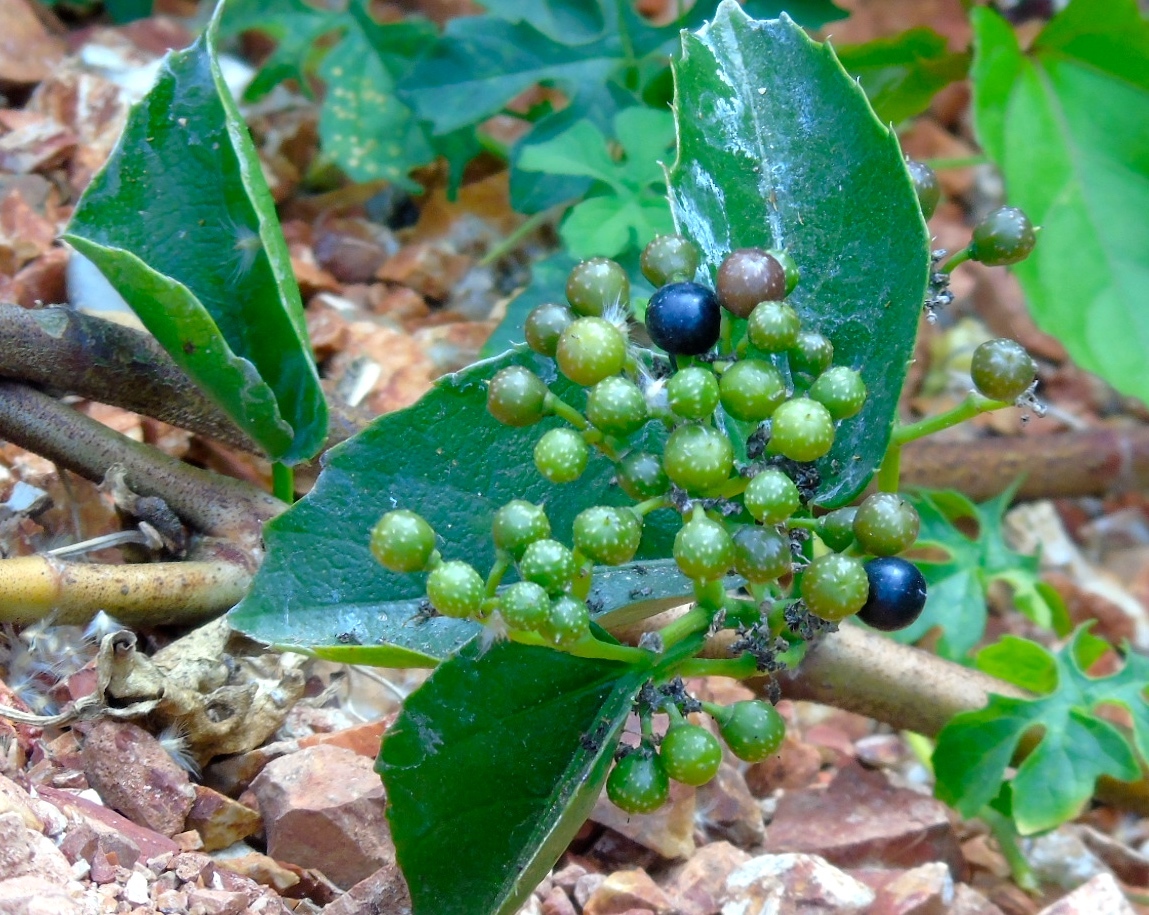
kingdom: Plantae
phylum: Tracheophyta
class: Magnoliopsida
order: Vitales
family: Vitaceae
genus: Cissus
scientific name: Cissus verticillata
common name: Princess vine
